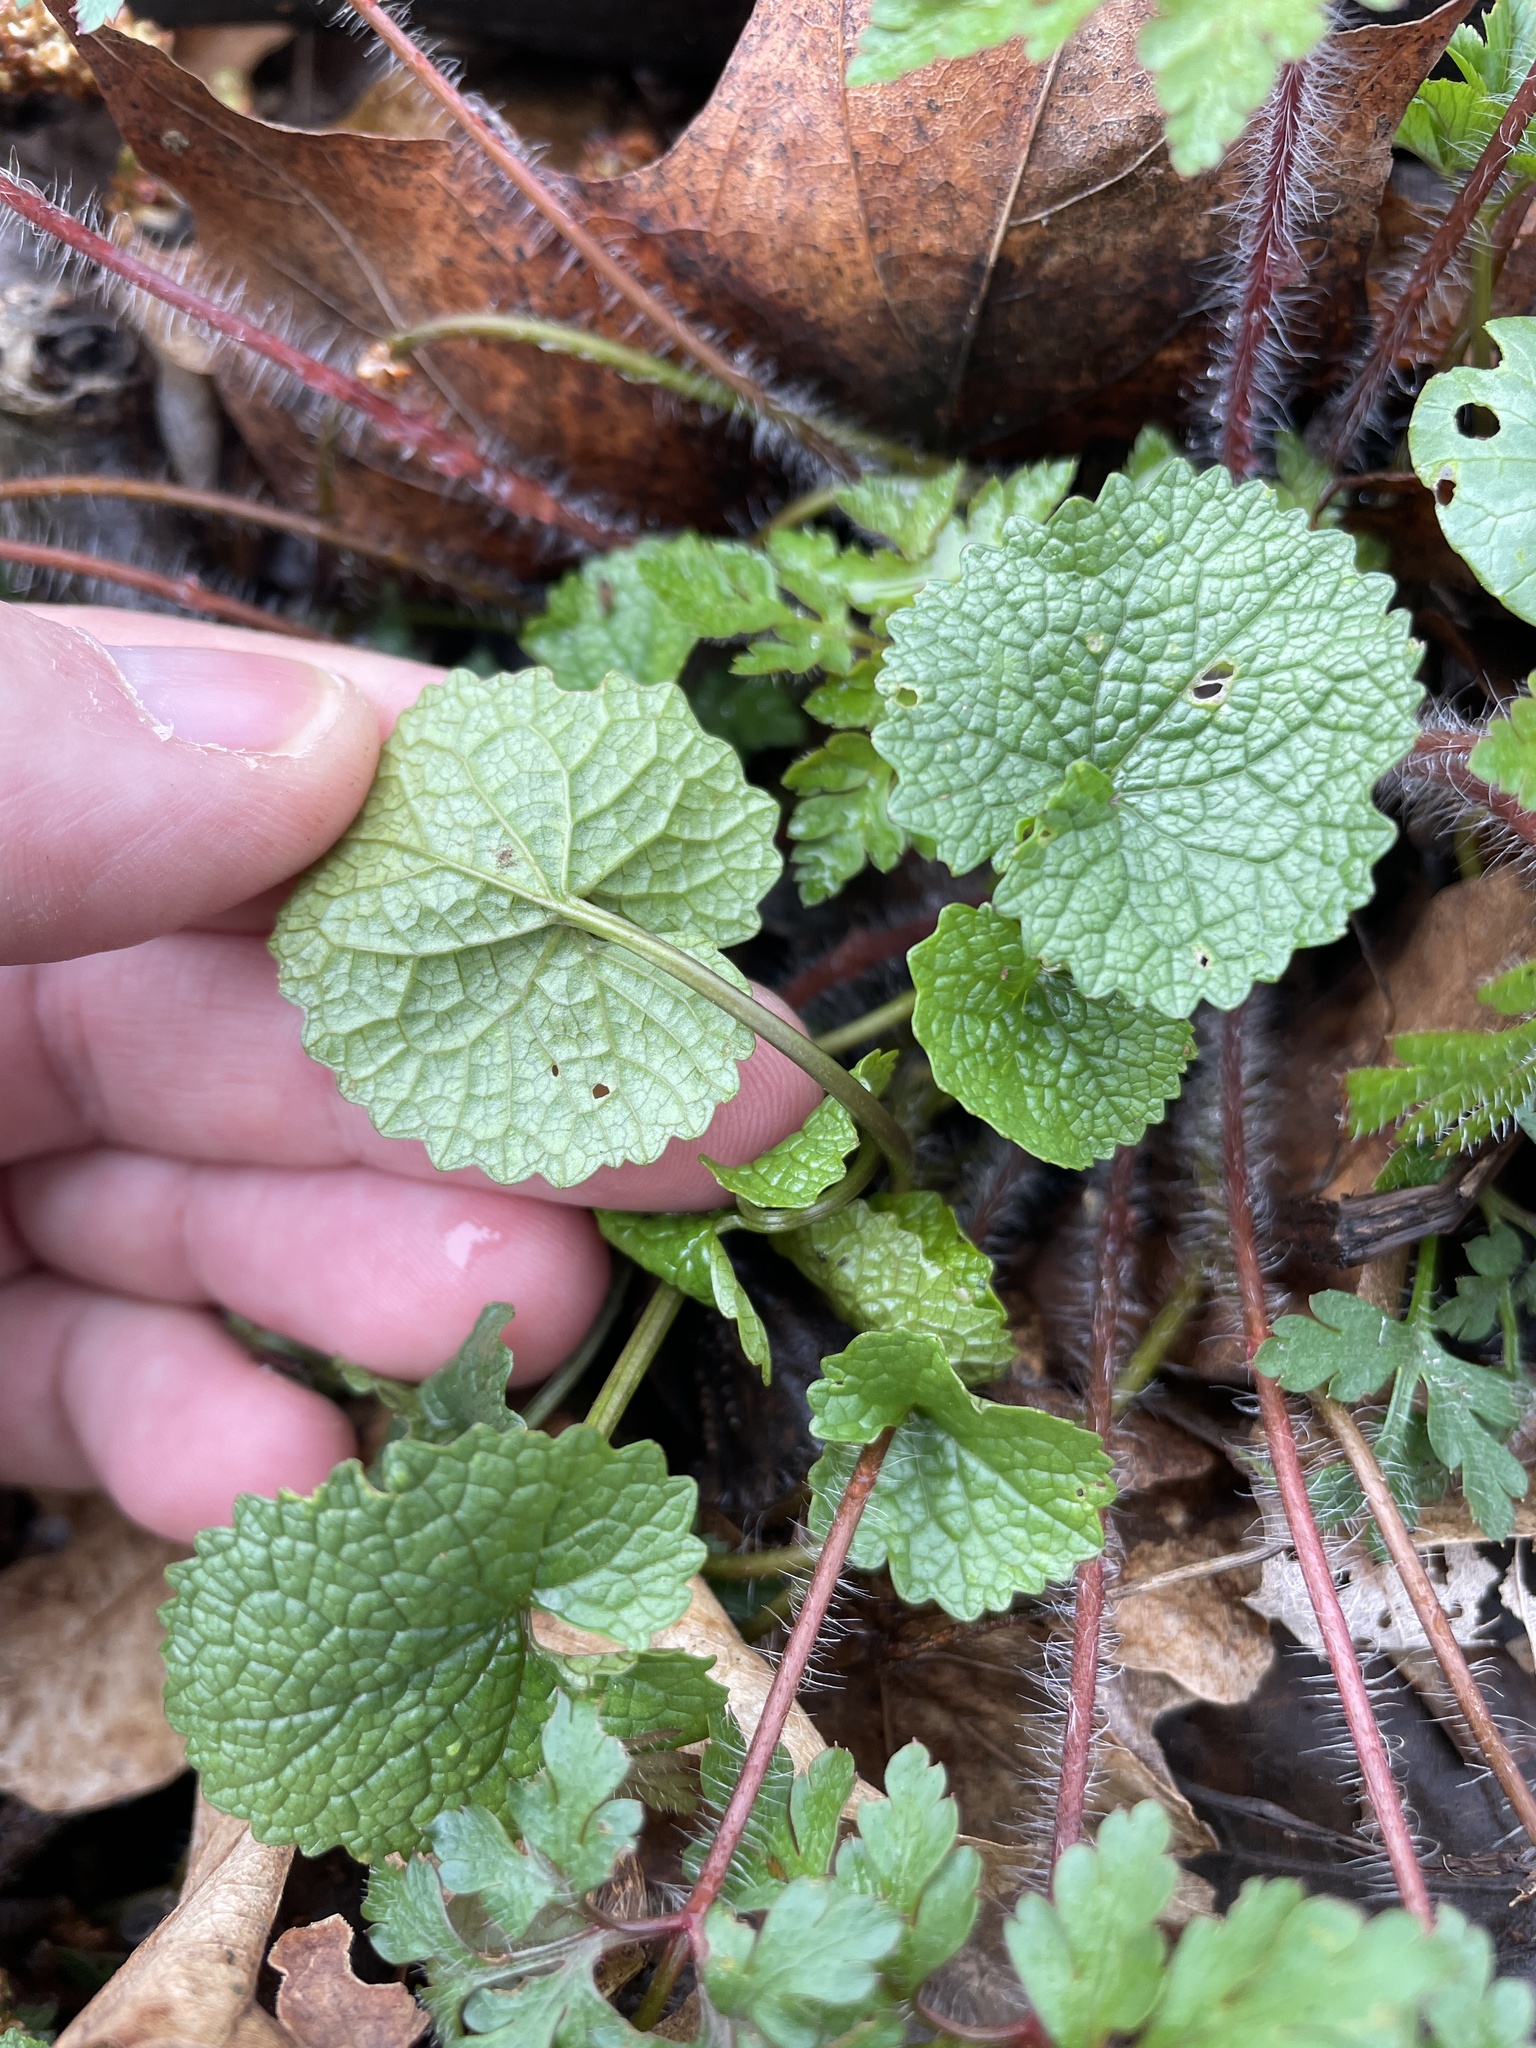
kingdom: Plantae
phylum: Tracheophyta
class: Magnoliopsida
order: Brassicales
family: Brassicaceae
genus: Alliaria
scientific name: Alliaria petiolata
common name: Garlic mustard
